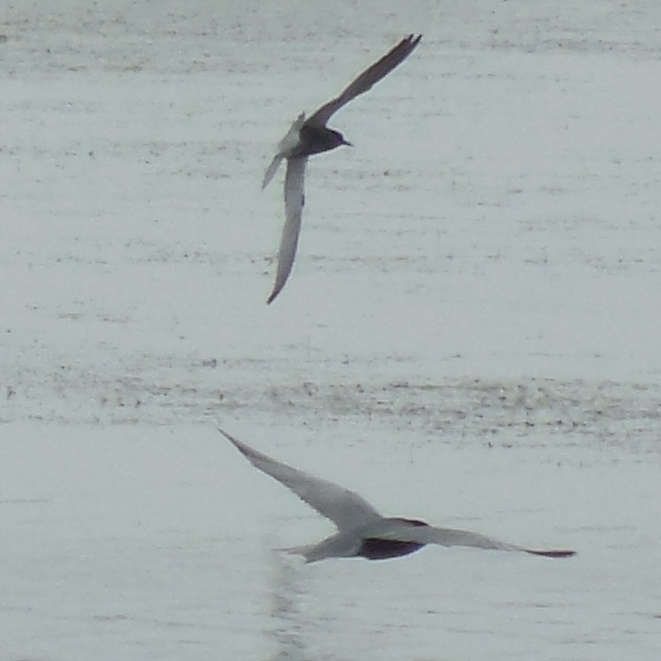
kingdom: Animalia
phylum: Chordata
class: Aves
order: Charadriiformes
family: Laridae
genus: Chlidonias
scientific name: Chlidonias niger
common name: Black tern
